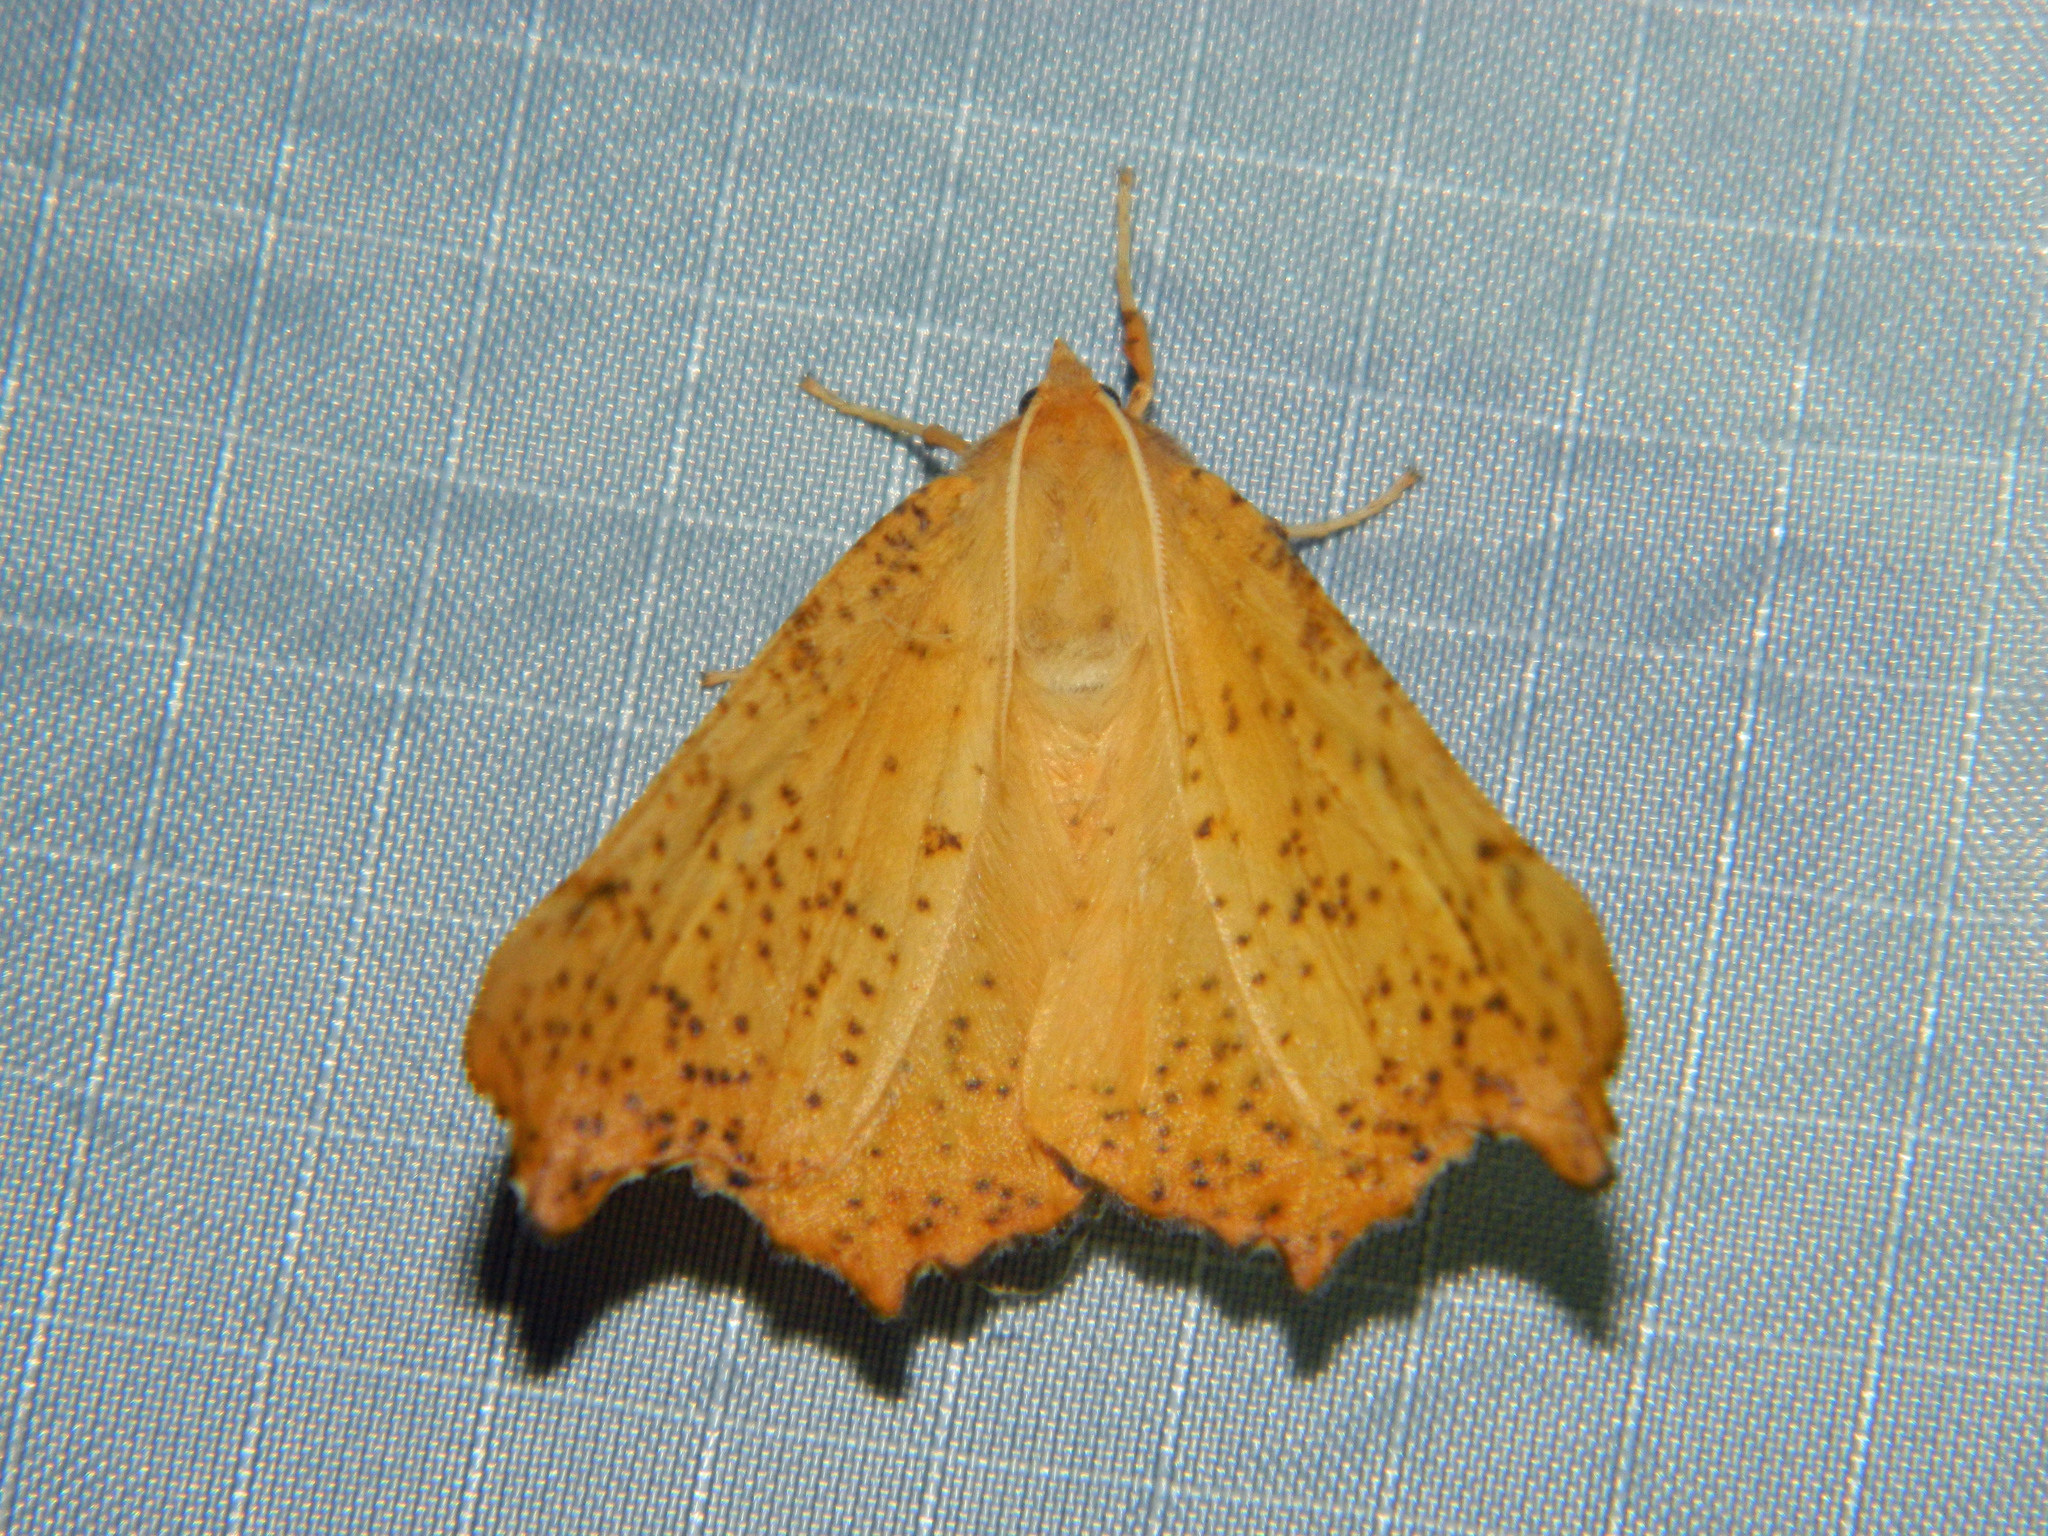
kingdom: Animalia
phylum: Arthropoda
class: Insecta
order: Lepidoptera
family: Geometridae
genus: Ennomos
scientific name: Ennomos magnaria
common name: Maple spanworm
